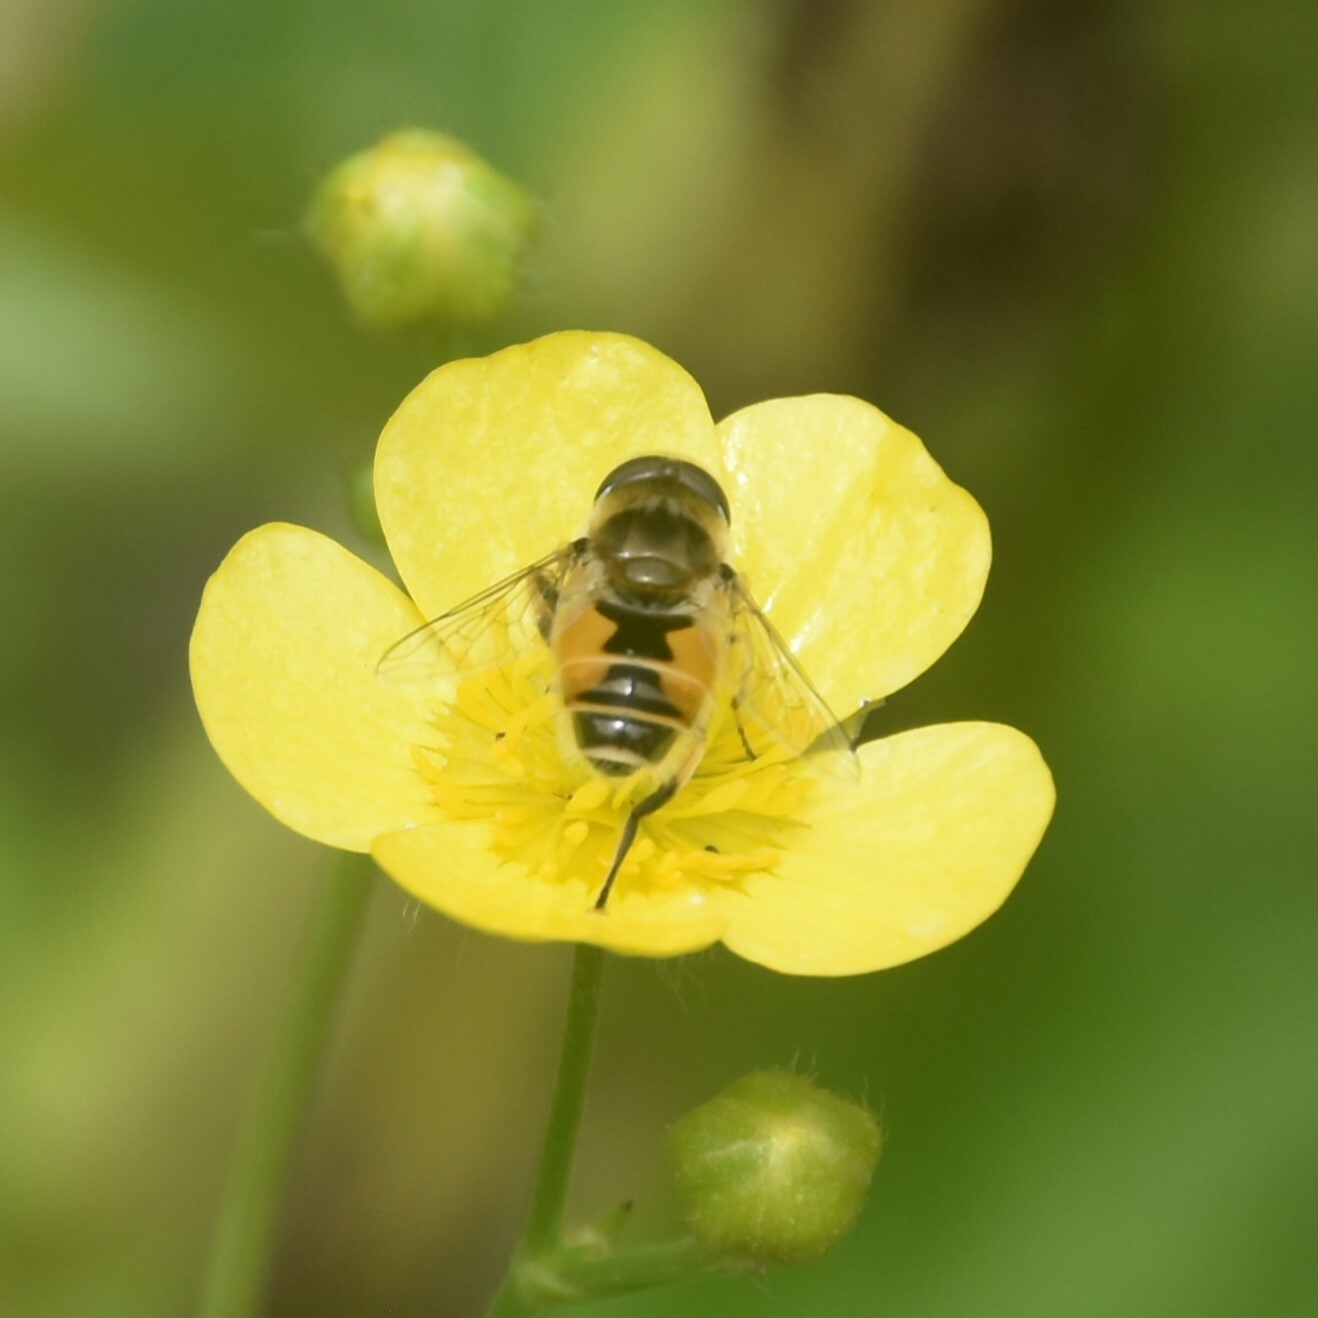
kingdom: Animalia
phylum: Arthropoda
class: Insecta
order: Diptera
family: Syrphidae
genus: Eristalis
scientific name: Eristalis arbustorum
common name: Hover fly
